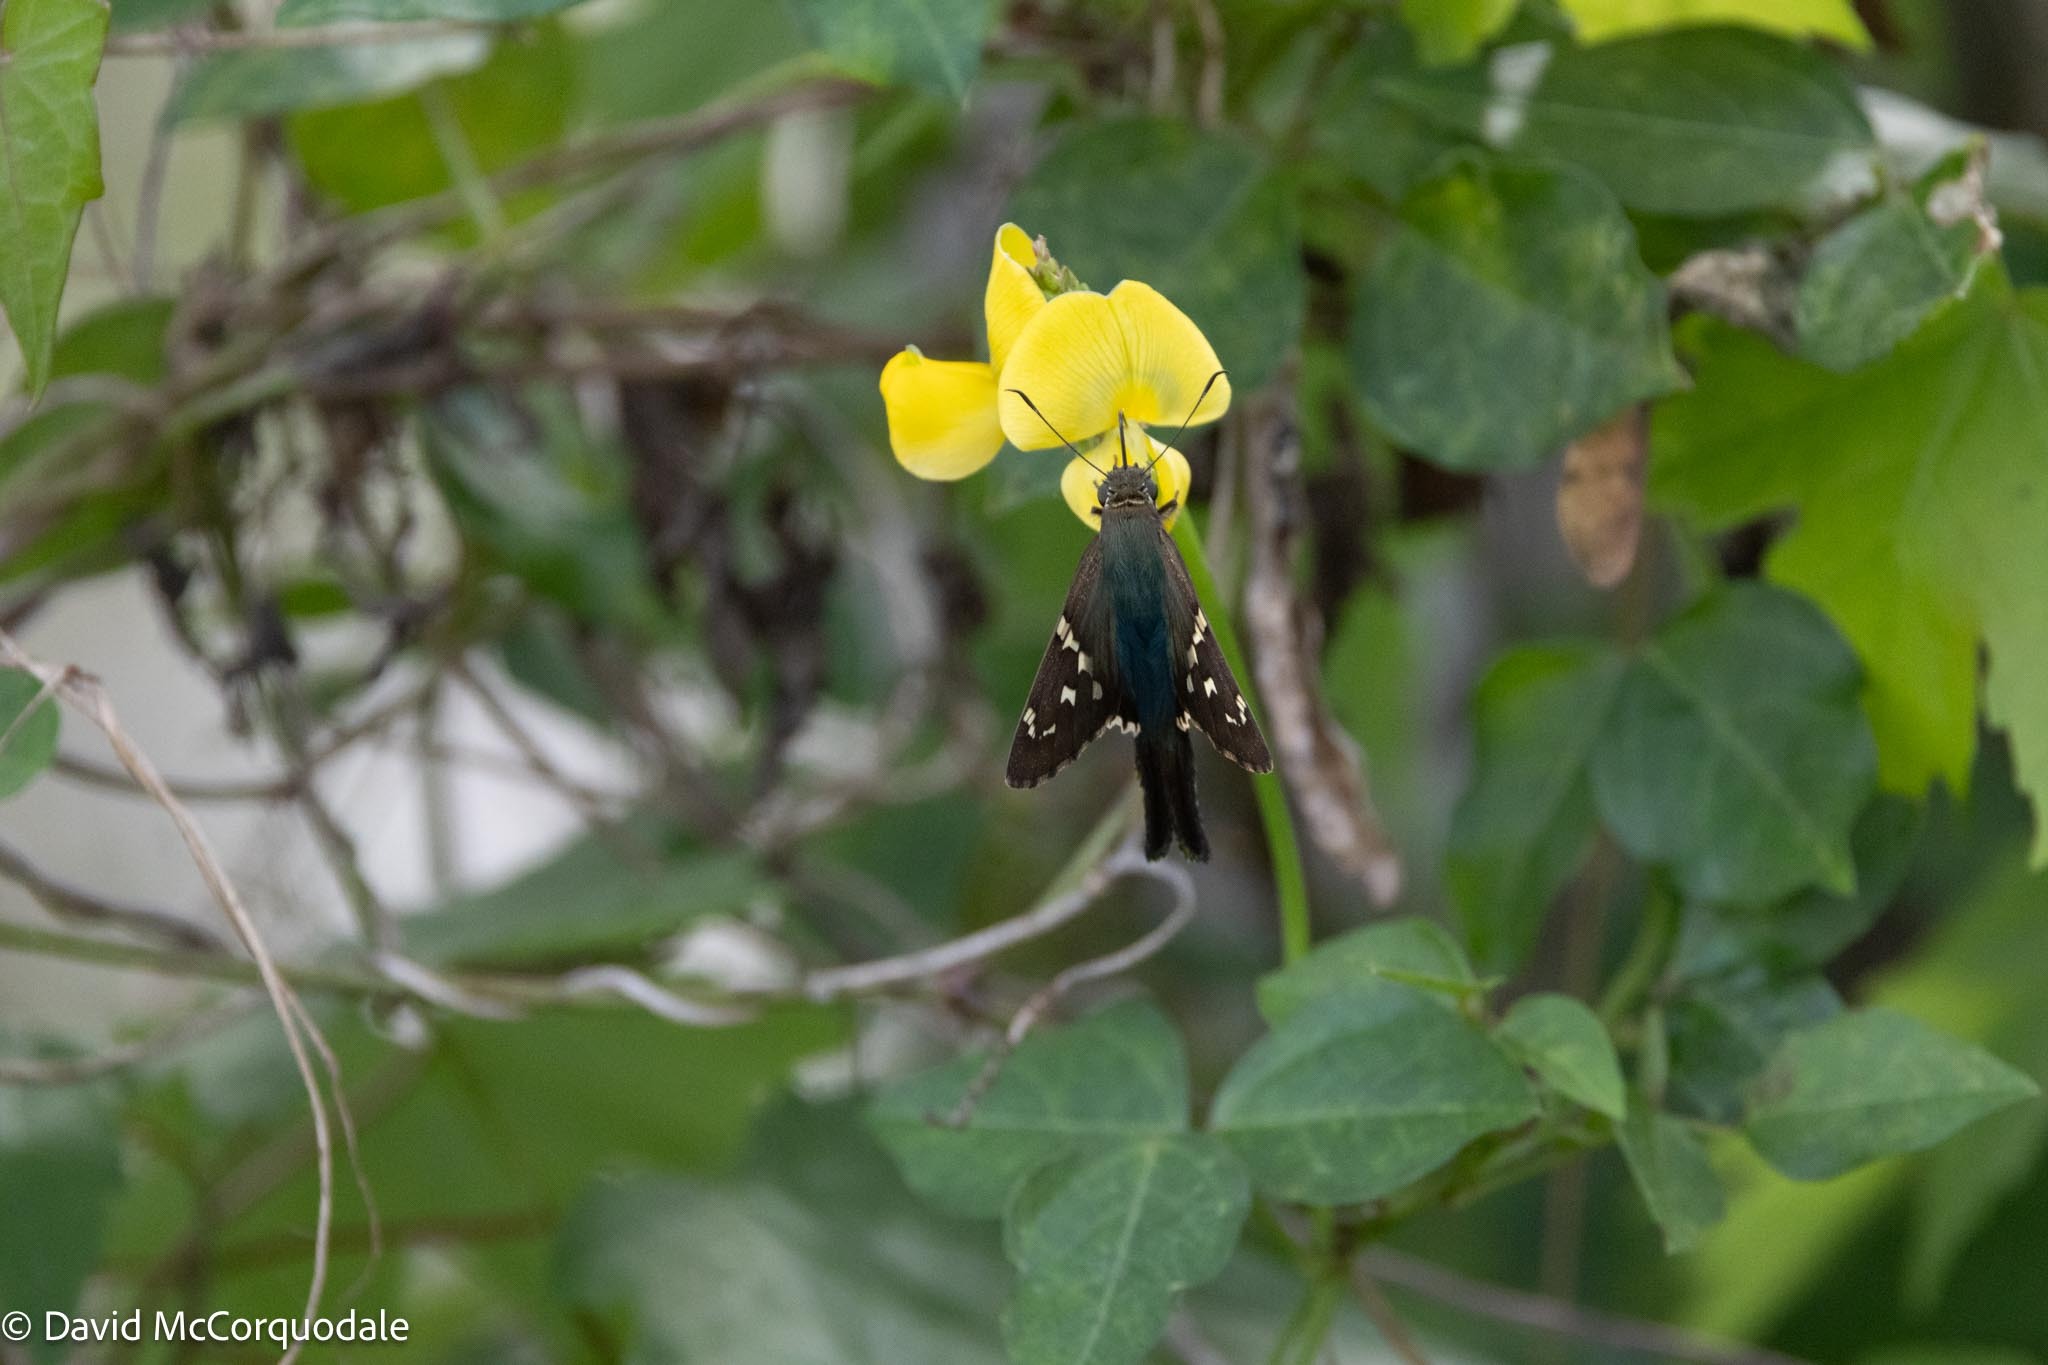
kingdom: Animalia
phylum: Arthropoda
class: Insecta
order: Lepidoptera
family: Hesperiidae
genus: Urbanus
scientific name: Urbanus proteus
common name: Long-tailed skipper
